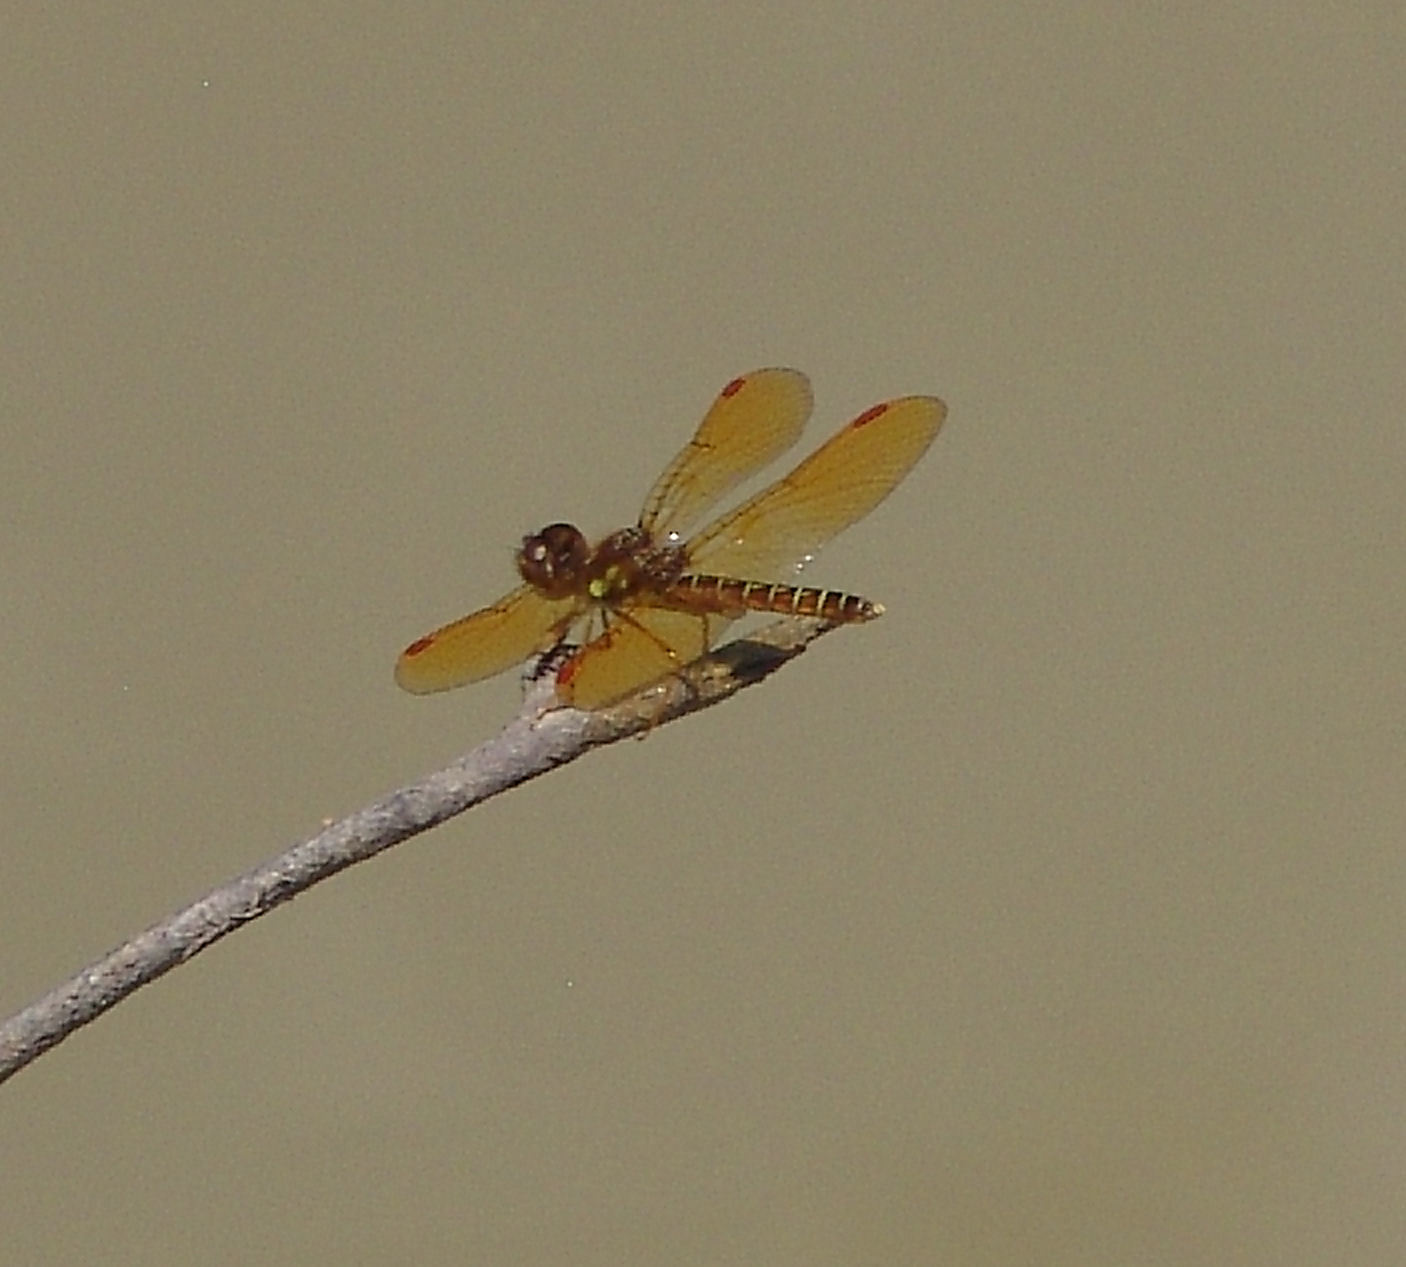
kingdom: Animalia
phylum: Arthropoda
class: Insecta
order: Odonata
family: Libellulidae
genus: Perithemis
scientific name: Perithemis tenera
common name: Eastern amberwing
